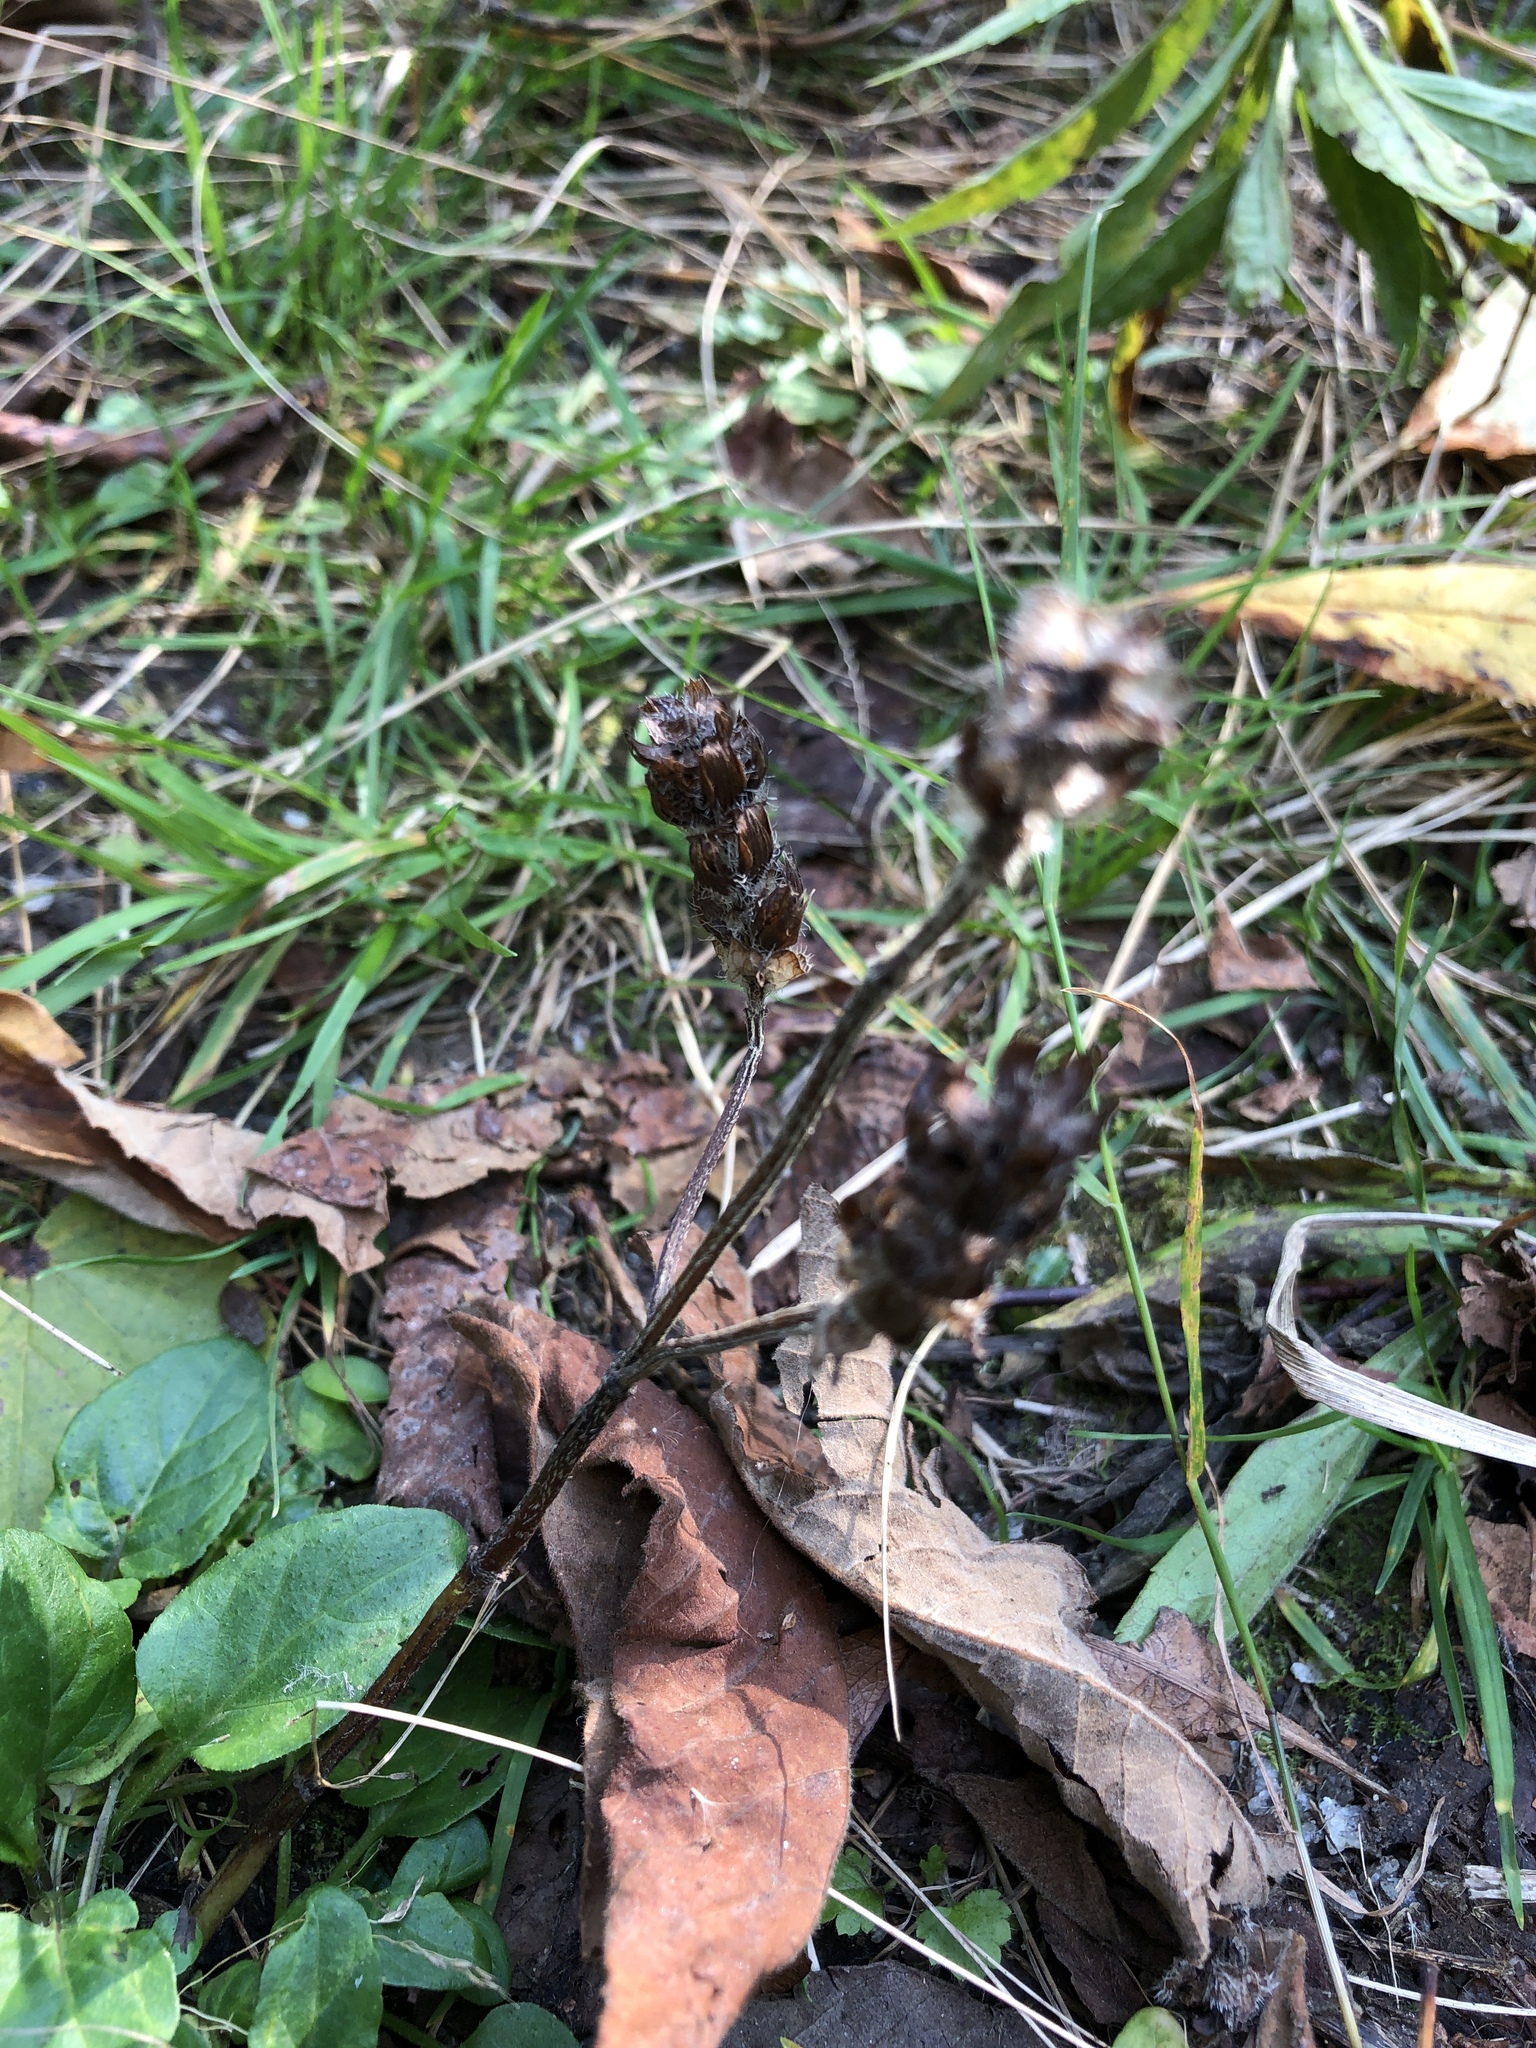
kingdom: Plantae
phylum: Tracheophyta
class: Magnoliopsida
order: Lamiales
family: Lamiaceae
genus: Prunella
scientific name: Prunella vulgaris
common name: Heal-all
